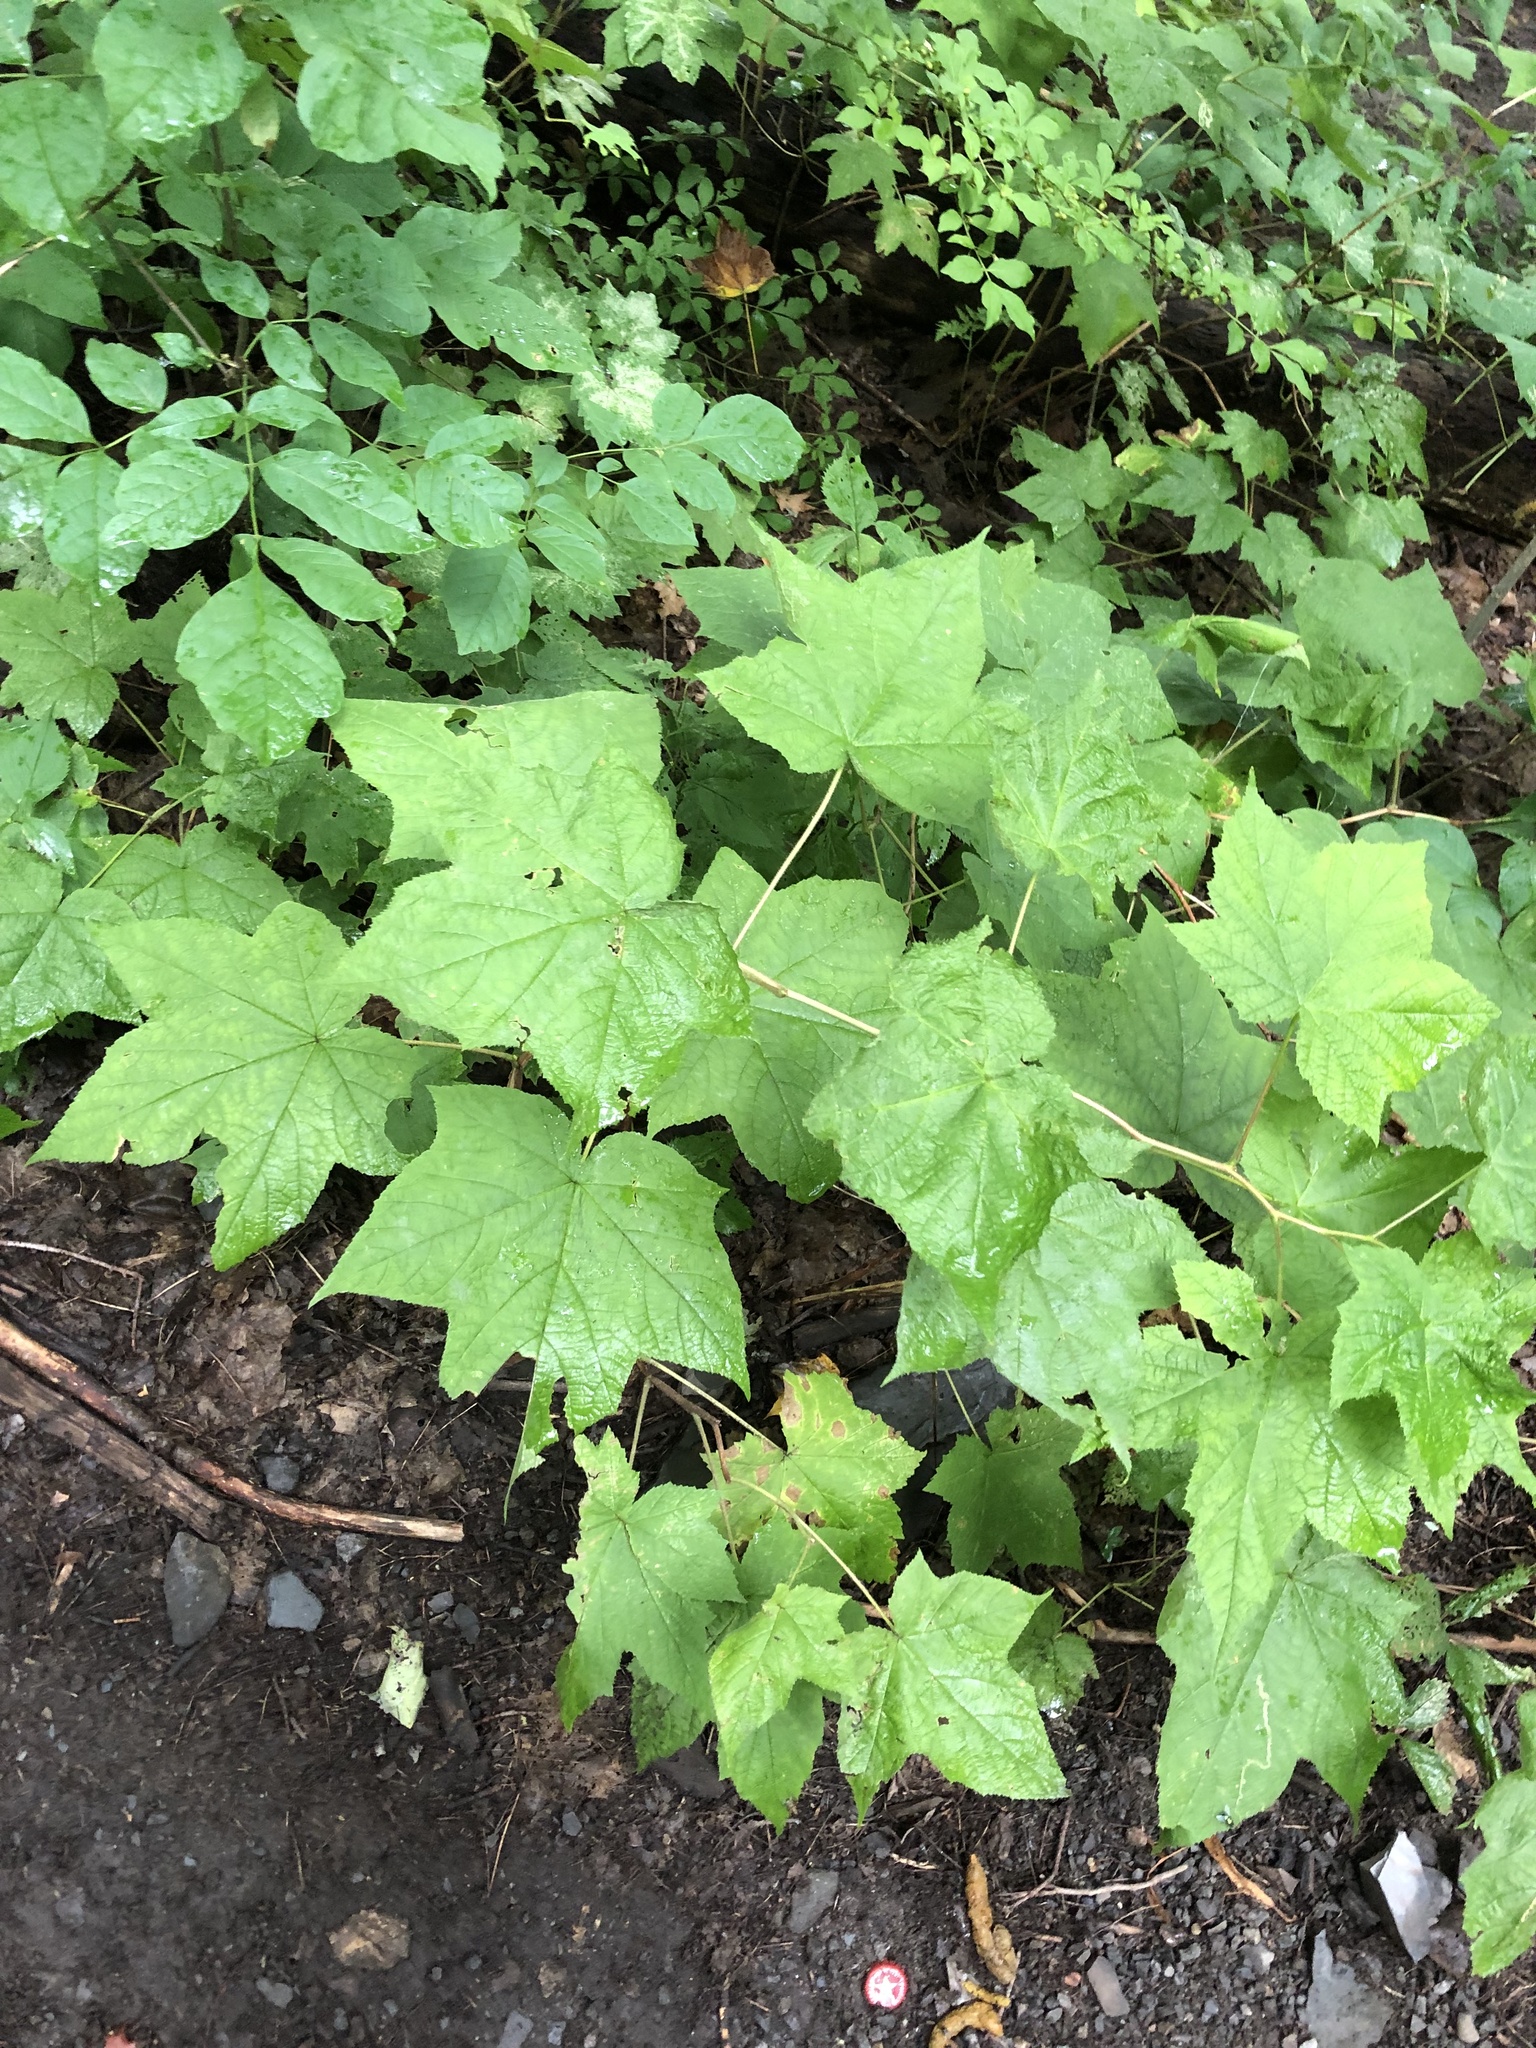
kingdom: Plantae
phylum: Tracheophyta
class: Magnoliopsida
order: Rosales
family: Rosaceae
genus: Rubus
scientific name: Rubus odoratus
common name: Purple-flowered raspberry
